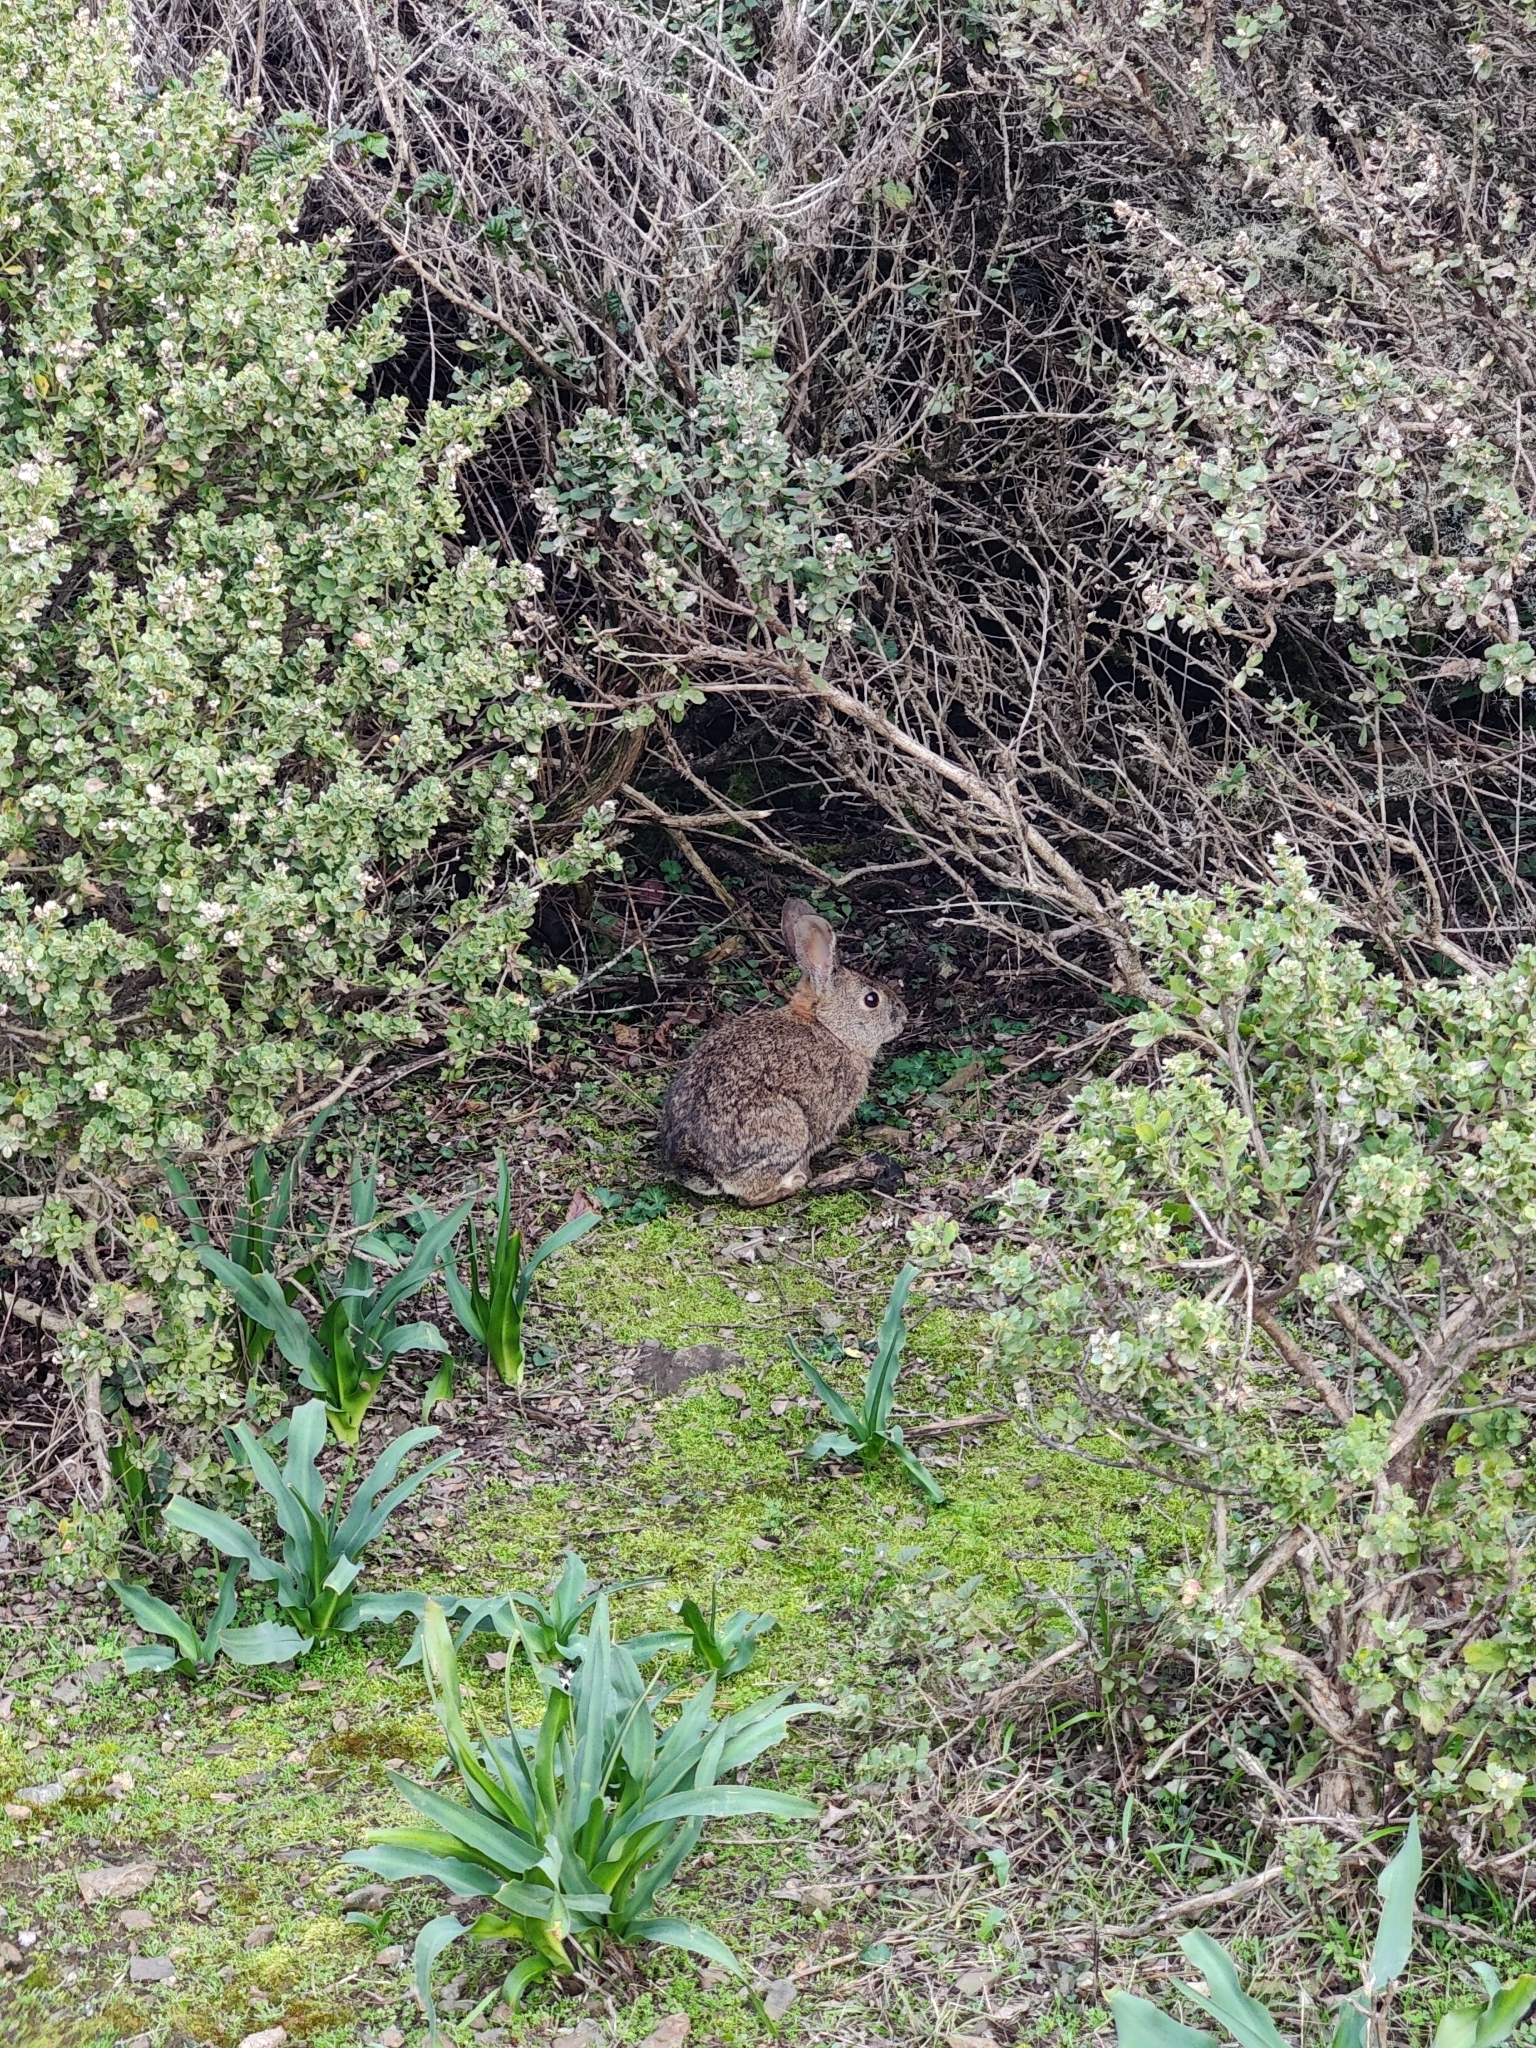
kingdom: Animalia
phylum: Chordata
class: Mammalia
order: Lagomorpha
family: Leporidae
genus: Sylvilagus
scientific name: Sylvilagus bachmani
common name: Brush rabbit
